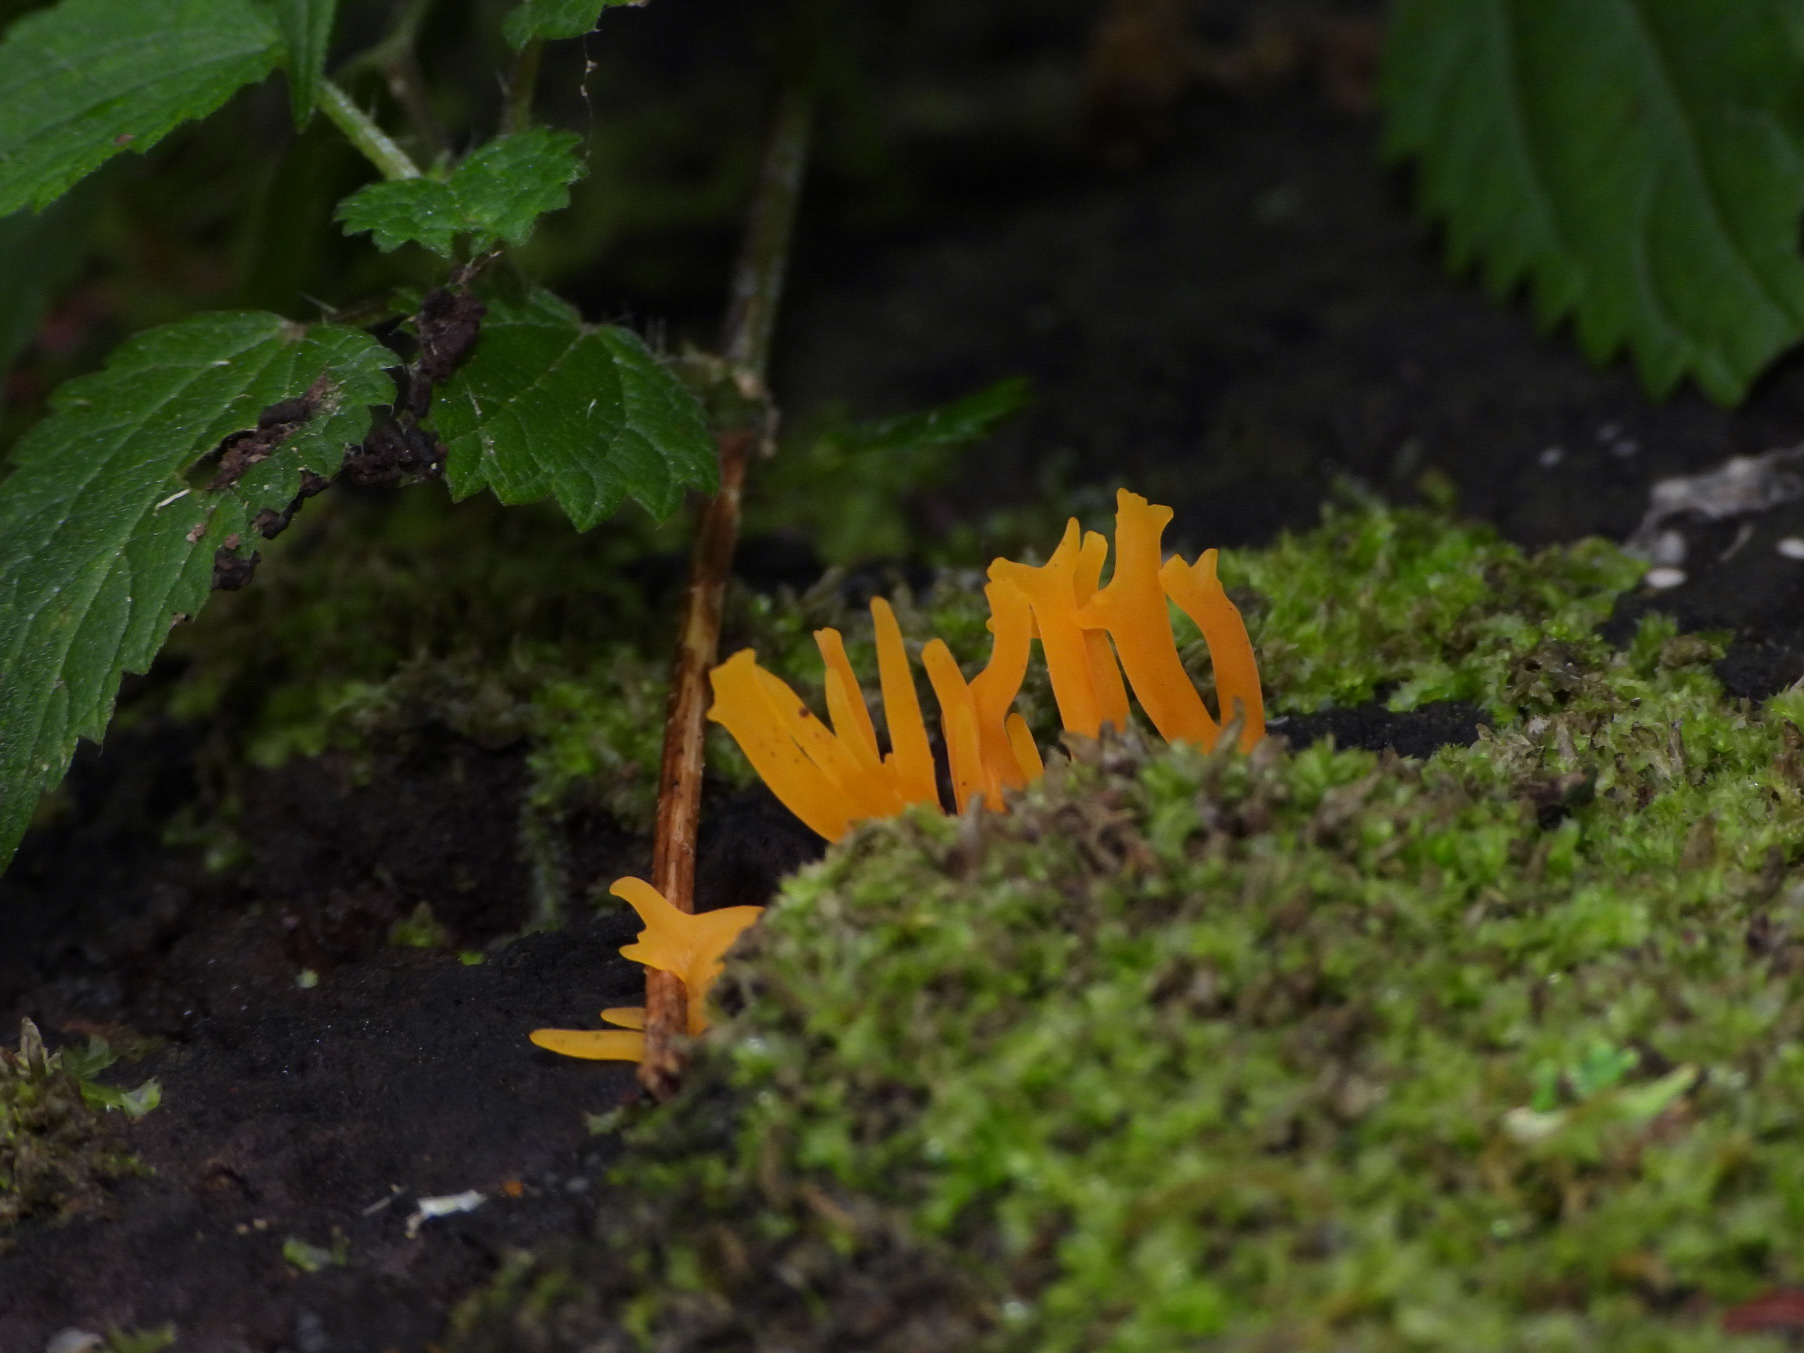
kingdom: Fungi
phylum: Basidiomycota
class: Dacrymycetes
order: Dacrymycetales
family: Dacrymycetaceae
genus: Calocera
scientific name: Calocera cornea
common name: Small stagshorn
